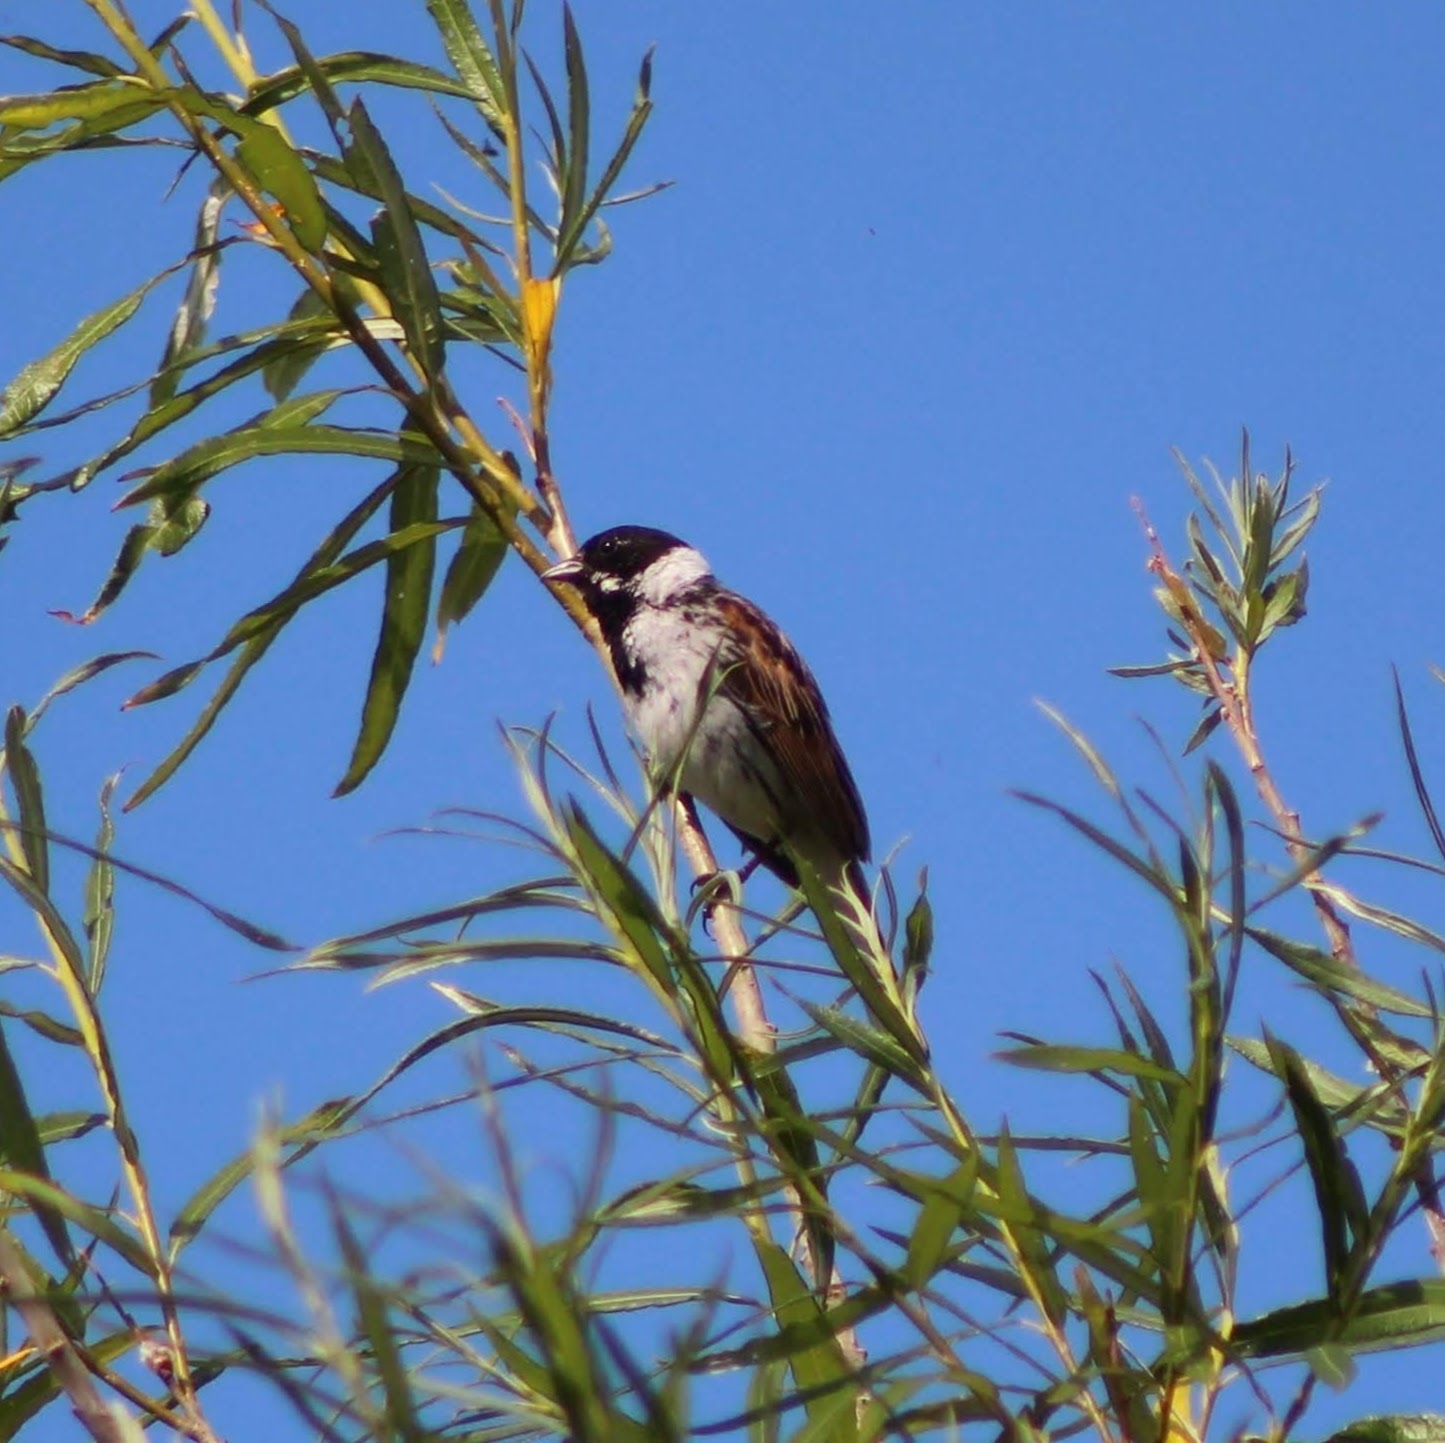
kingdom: Animalia
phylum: Chordata
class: Aves
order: Passeriformes
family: Emberizidae
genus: Emberiza
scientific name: Emberiza schoeniclus
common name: Reed bunting
